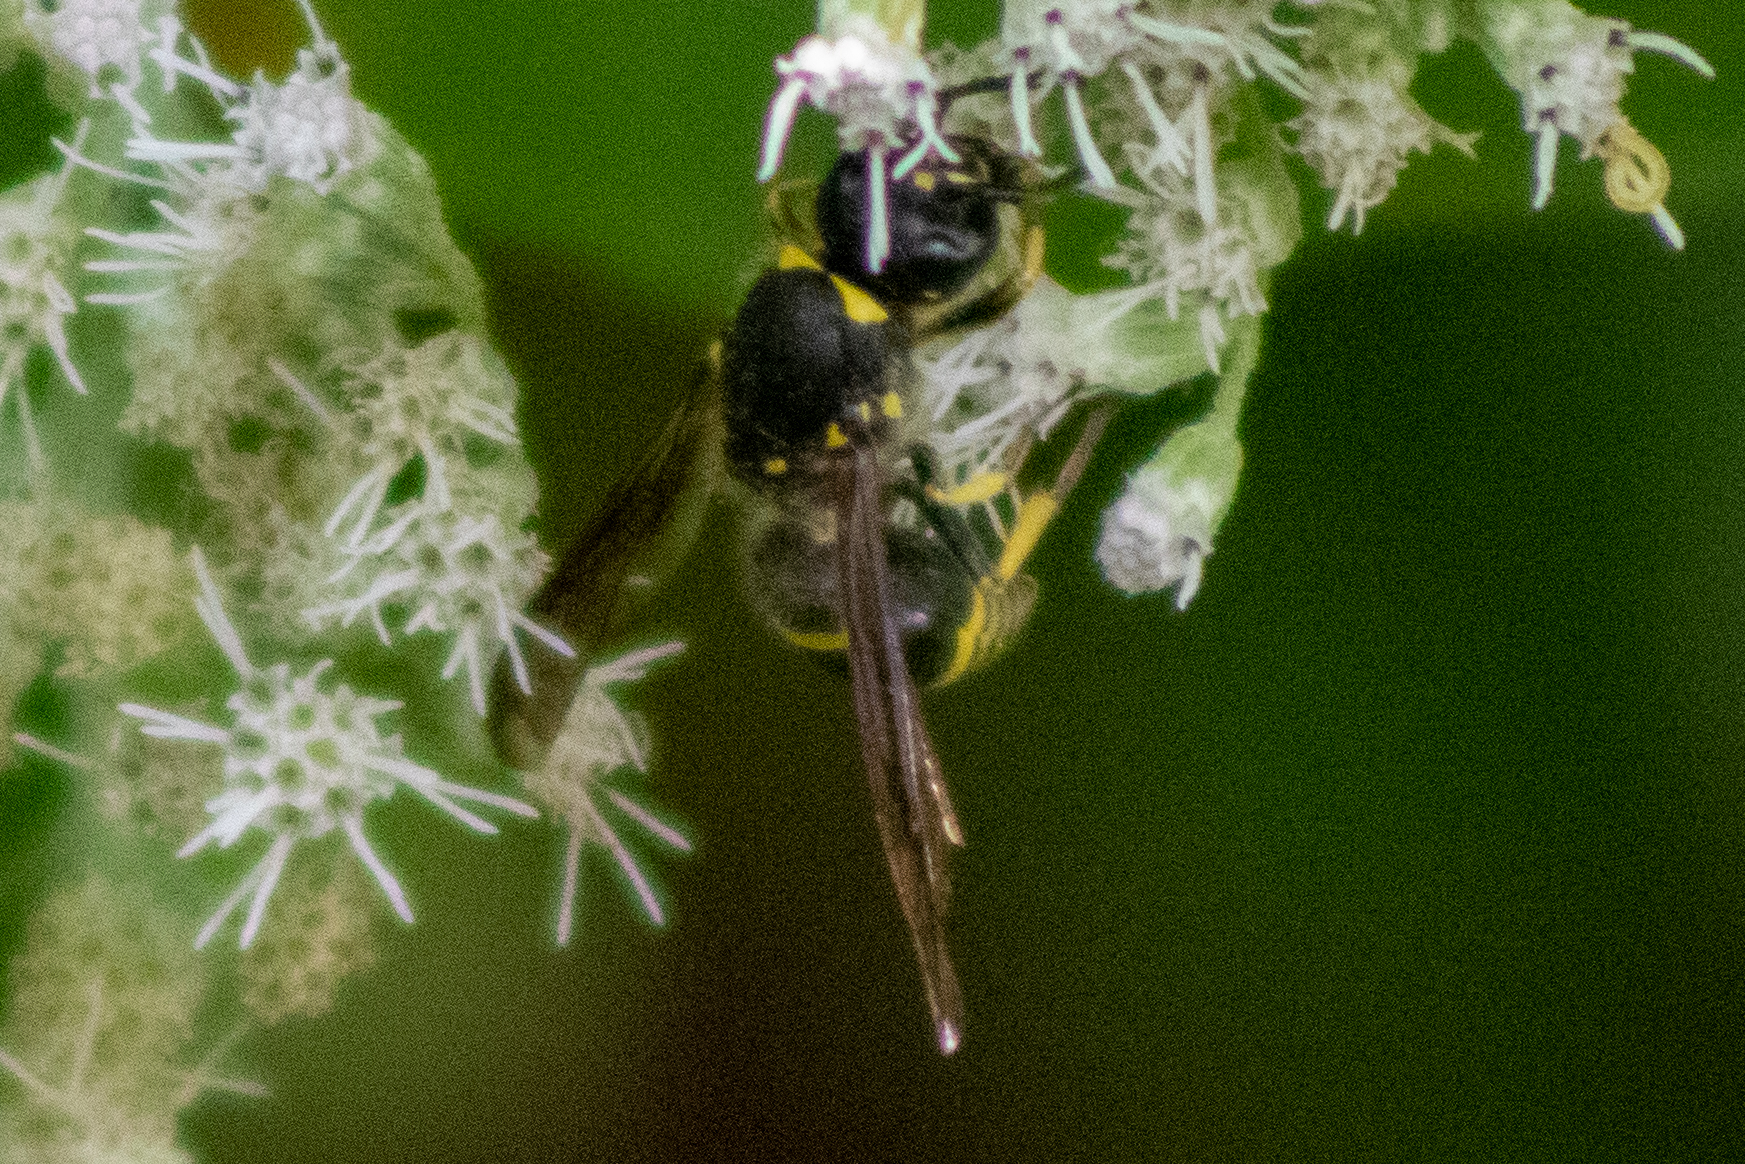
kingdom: Animalia
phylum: Arthropoda
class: Insecta
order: Hymenoptera
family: Vespidae
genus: Ancistrocerus
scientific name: Ancistrocerus
